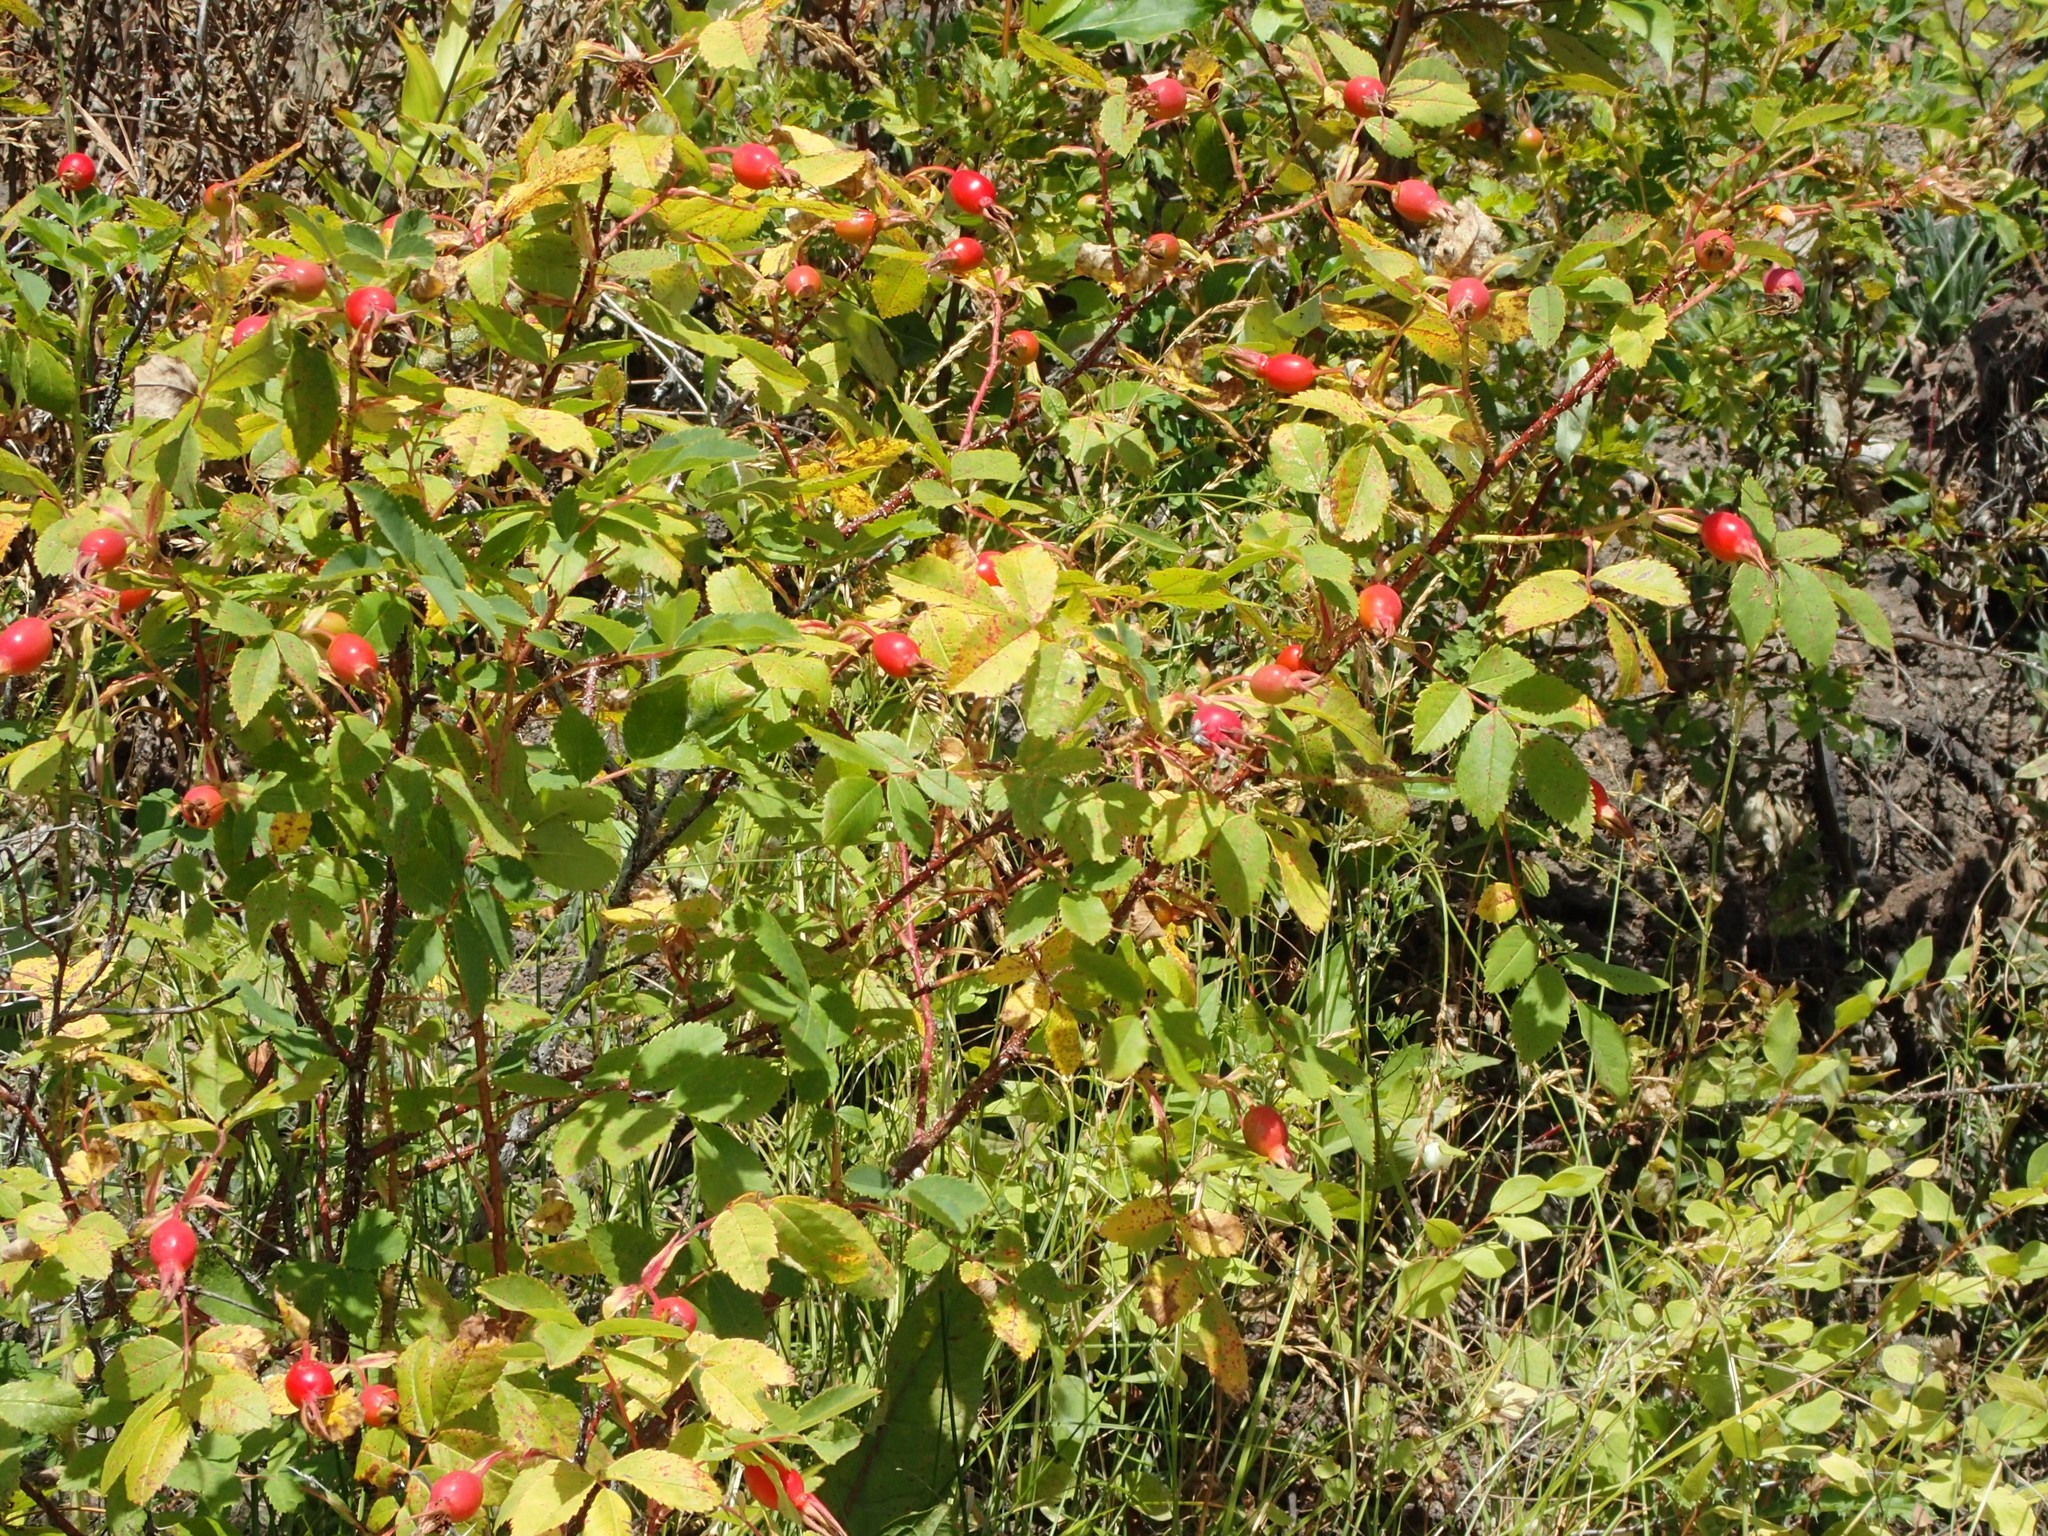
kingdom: Plantae
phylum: Tracheophyta
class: Magnoliopsida
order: Rosales
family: Rosaceae
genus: Rosa
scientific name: Rosa acicularis
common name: Prickly rose
